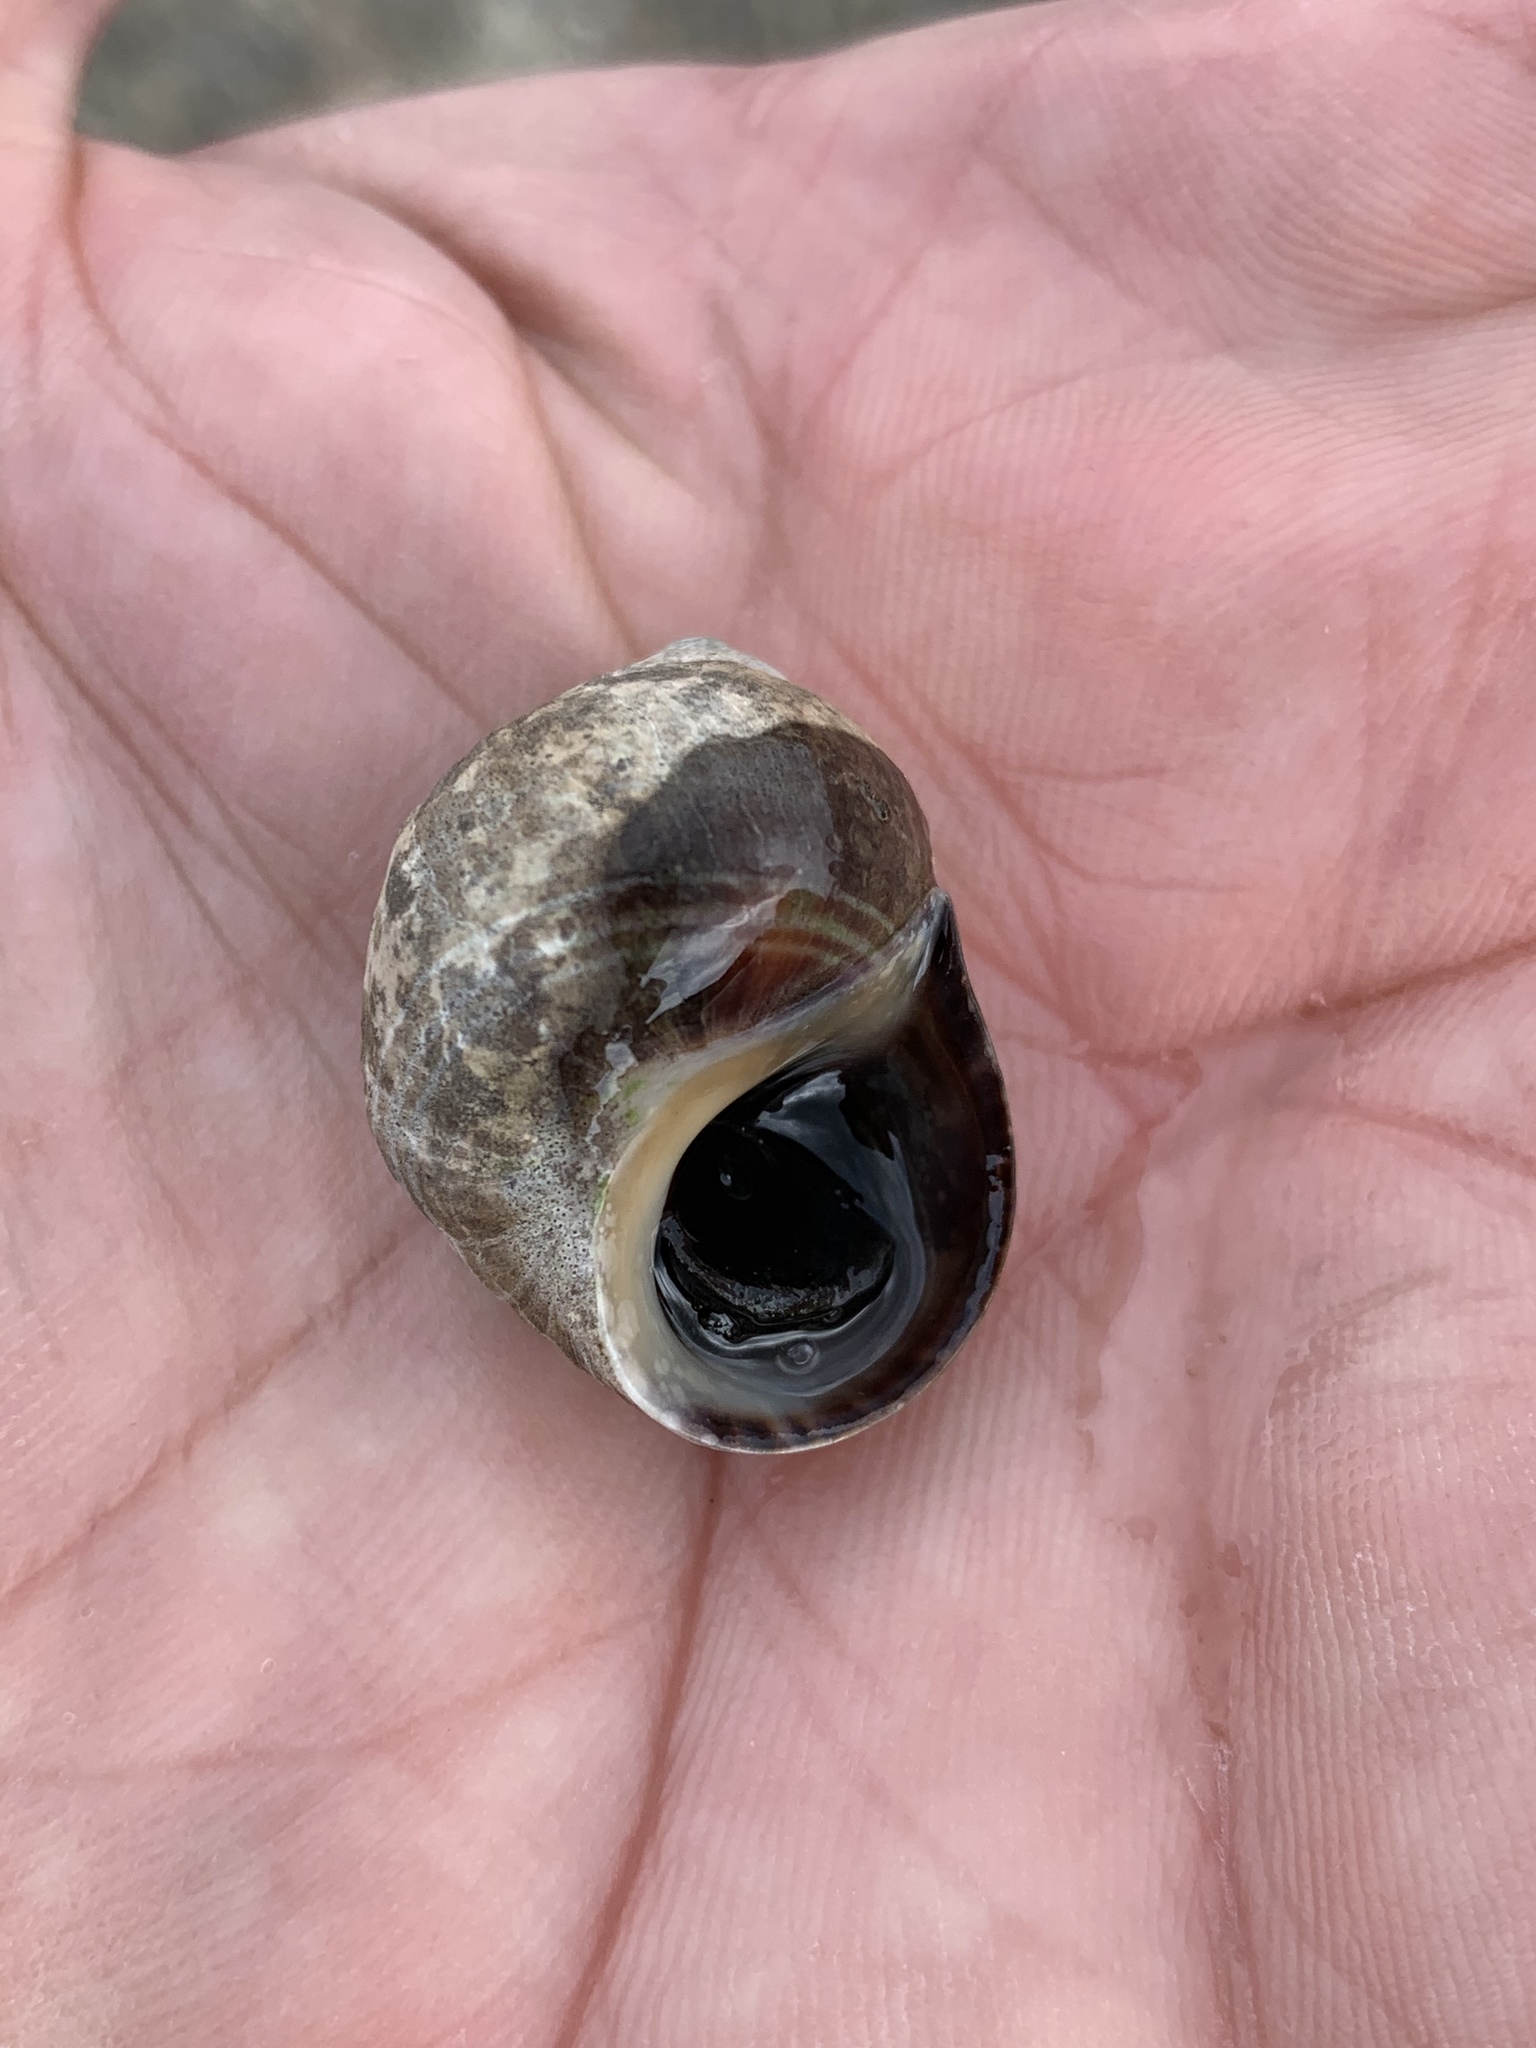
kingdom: Animalia
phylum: Mollusca
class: Gastropoda
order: Littorinimorpha
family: Littorinidae
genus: Littorina
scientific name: Littorina littorea
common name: Common periwinkle
